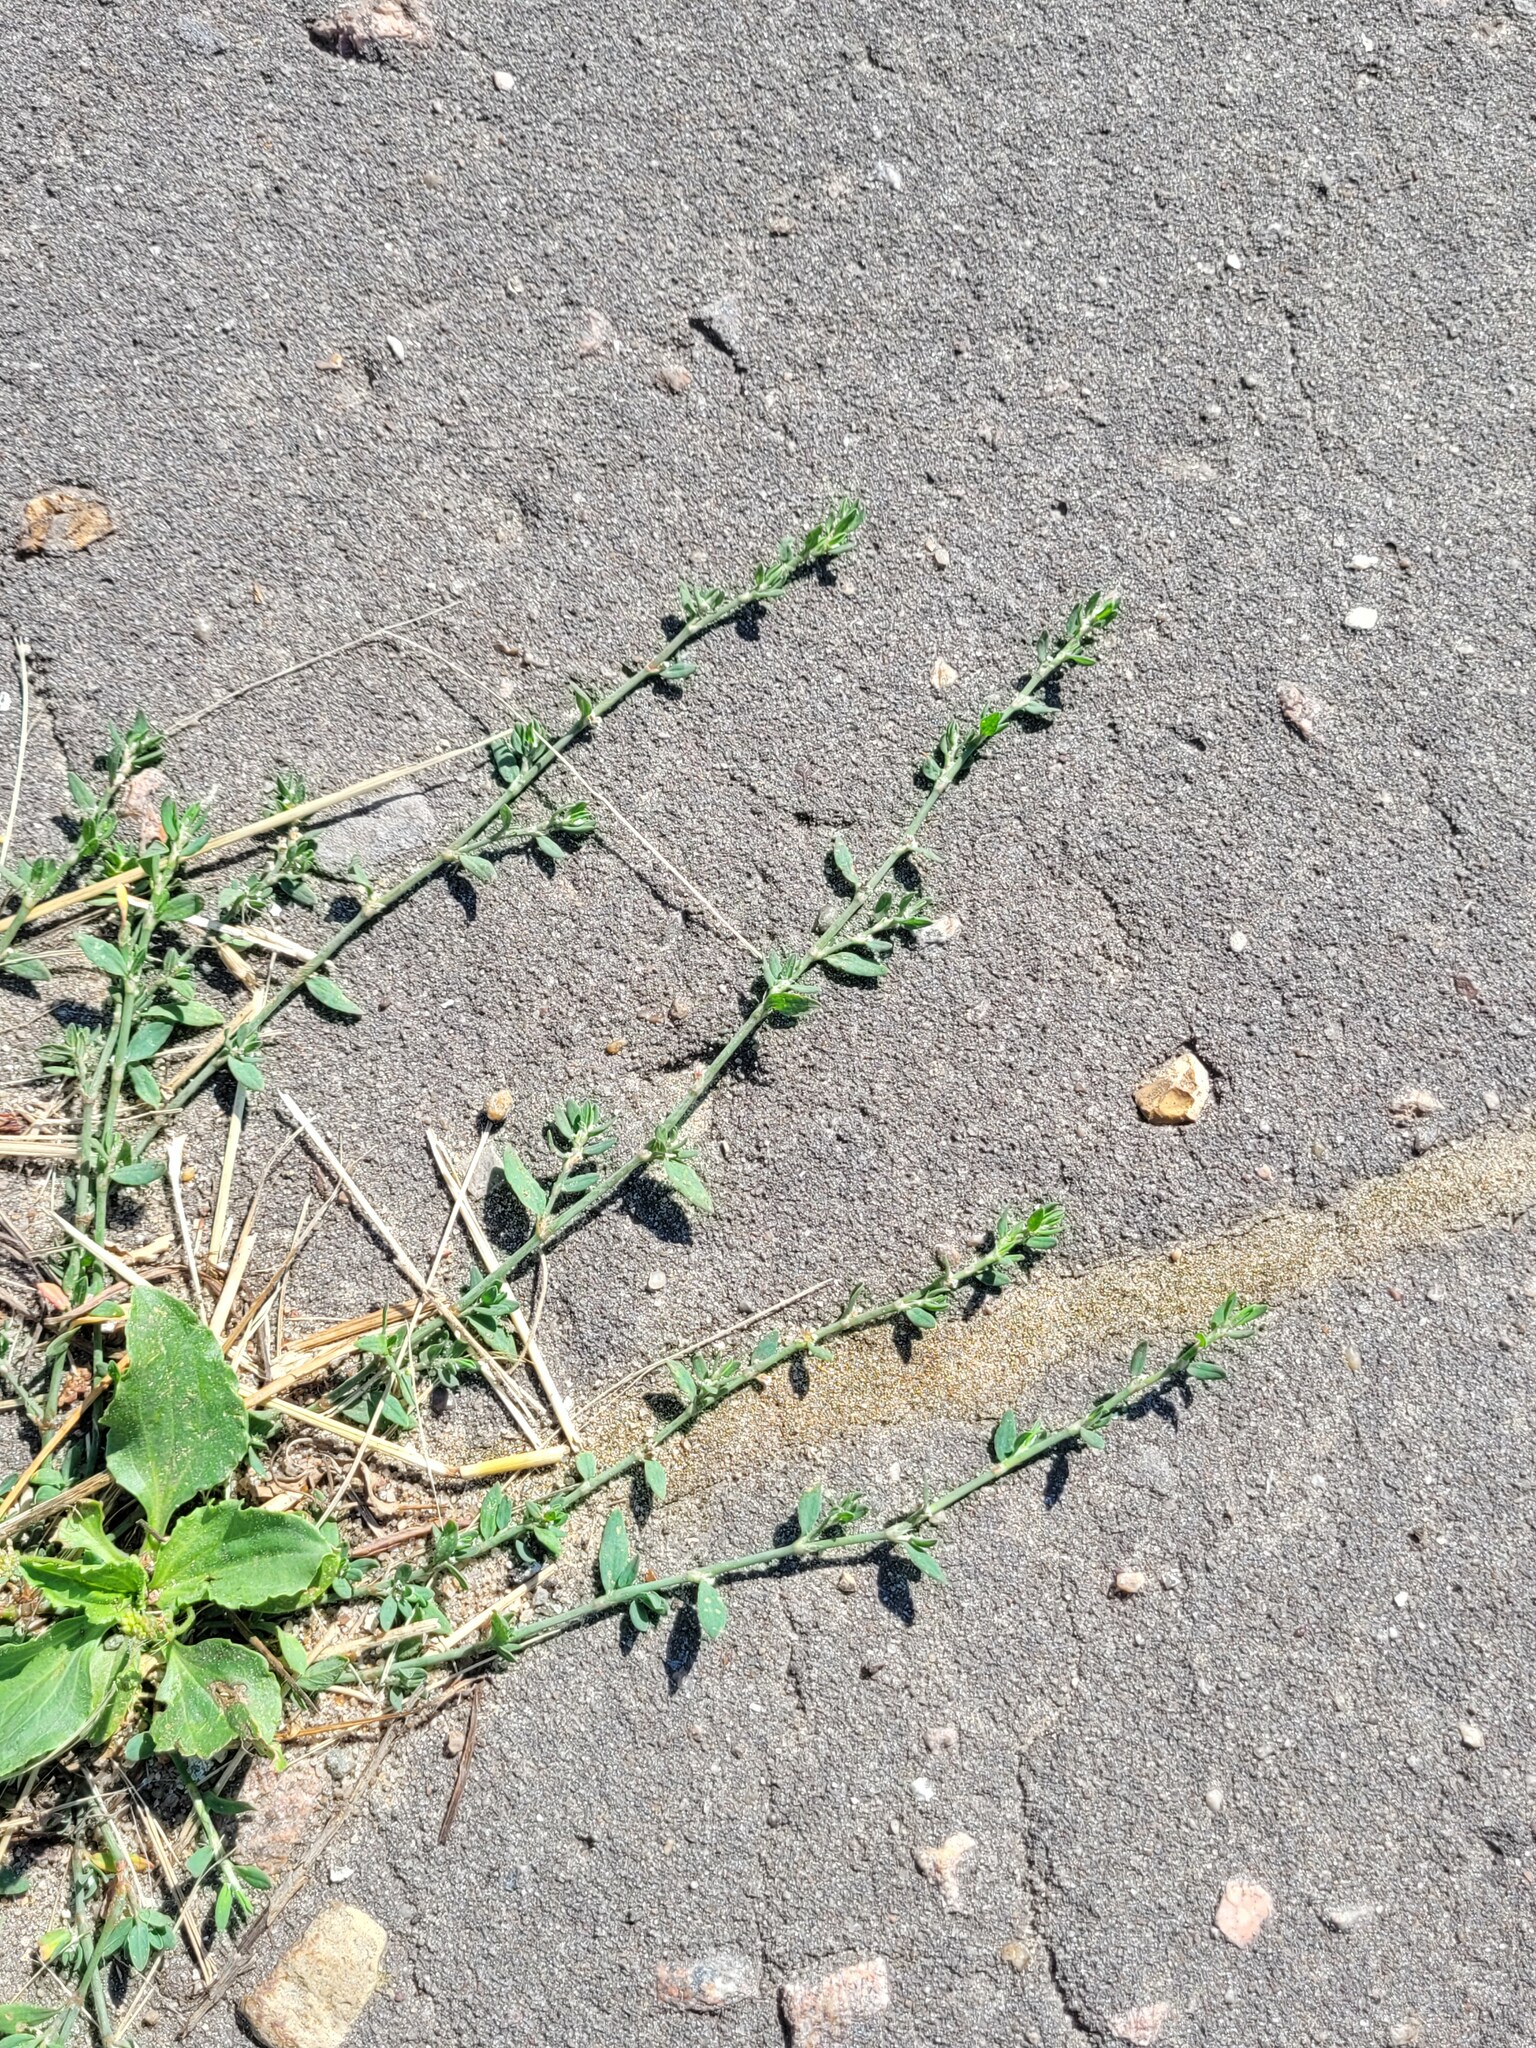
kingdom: Plantae
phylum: Tracheophyta
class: Magnoliopsida
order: Caryophyllales
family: Polygonaceae
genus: Polygonum
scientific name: Polygonum
